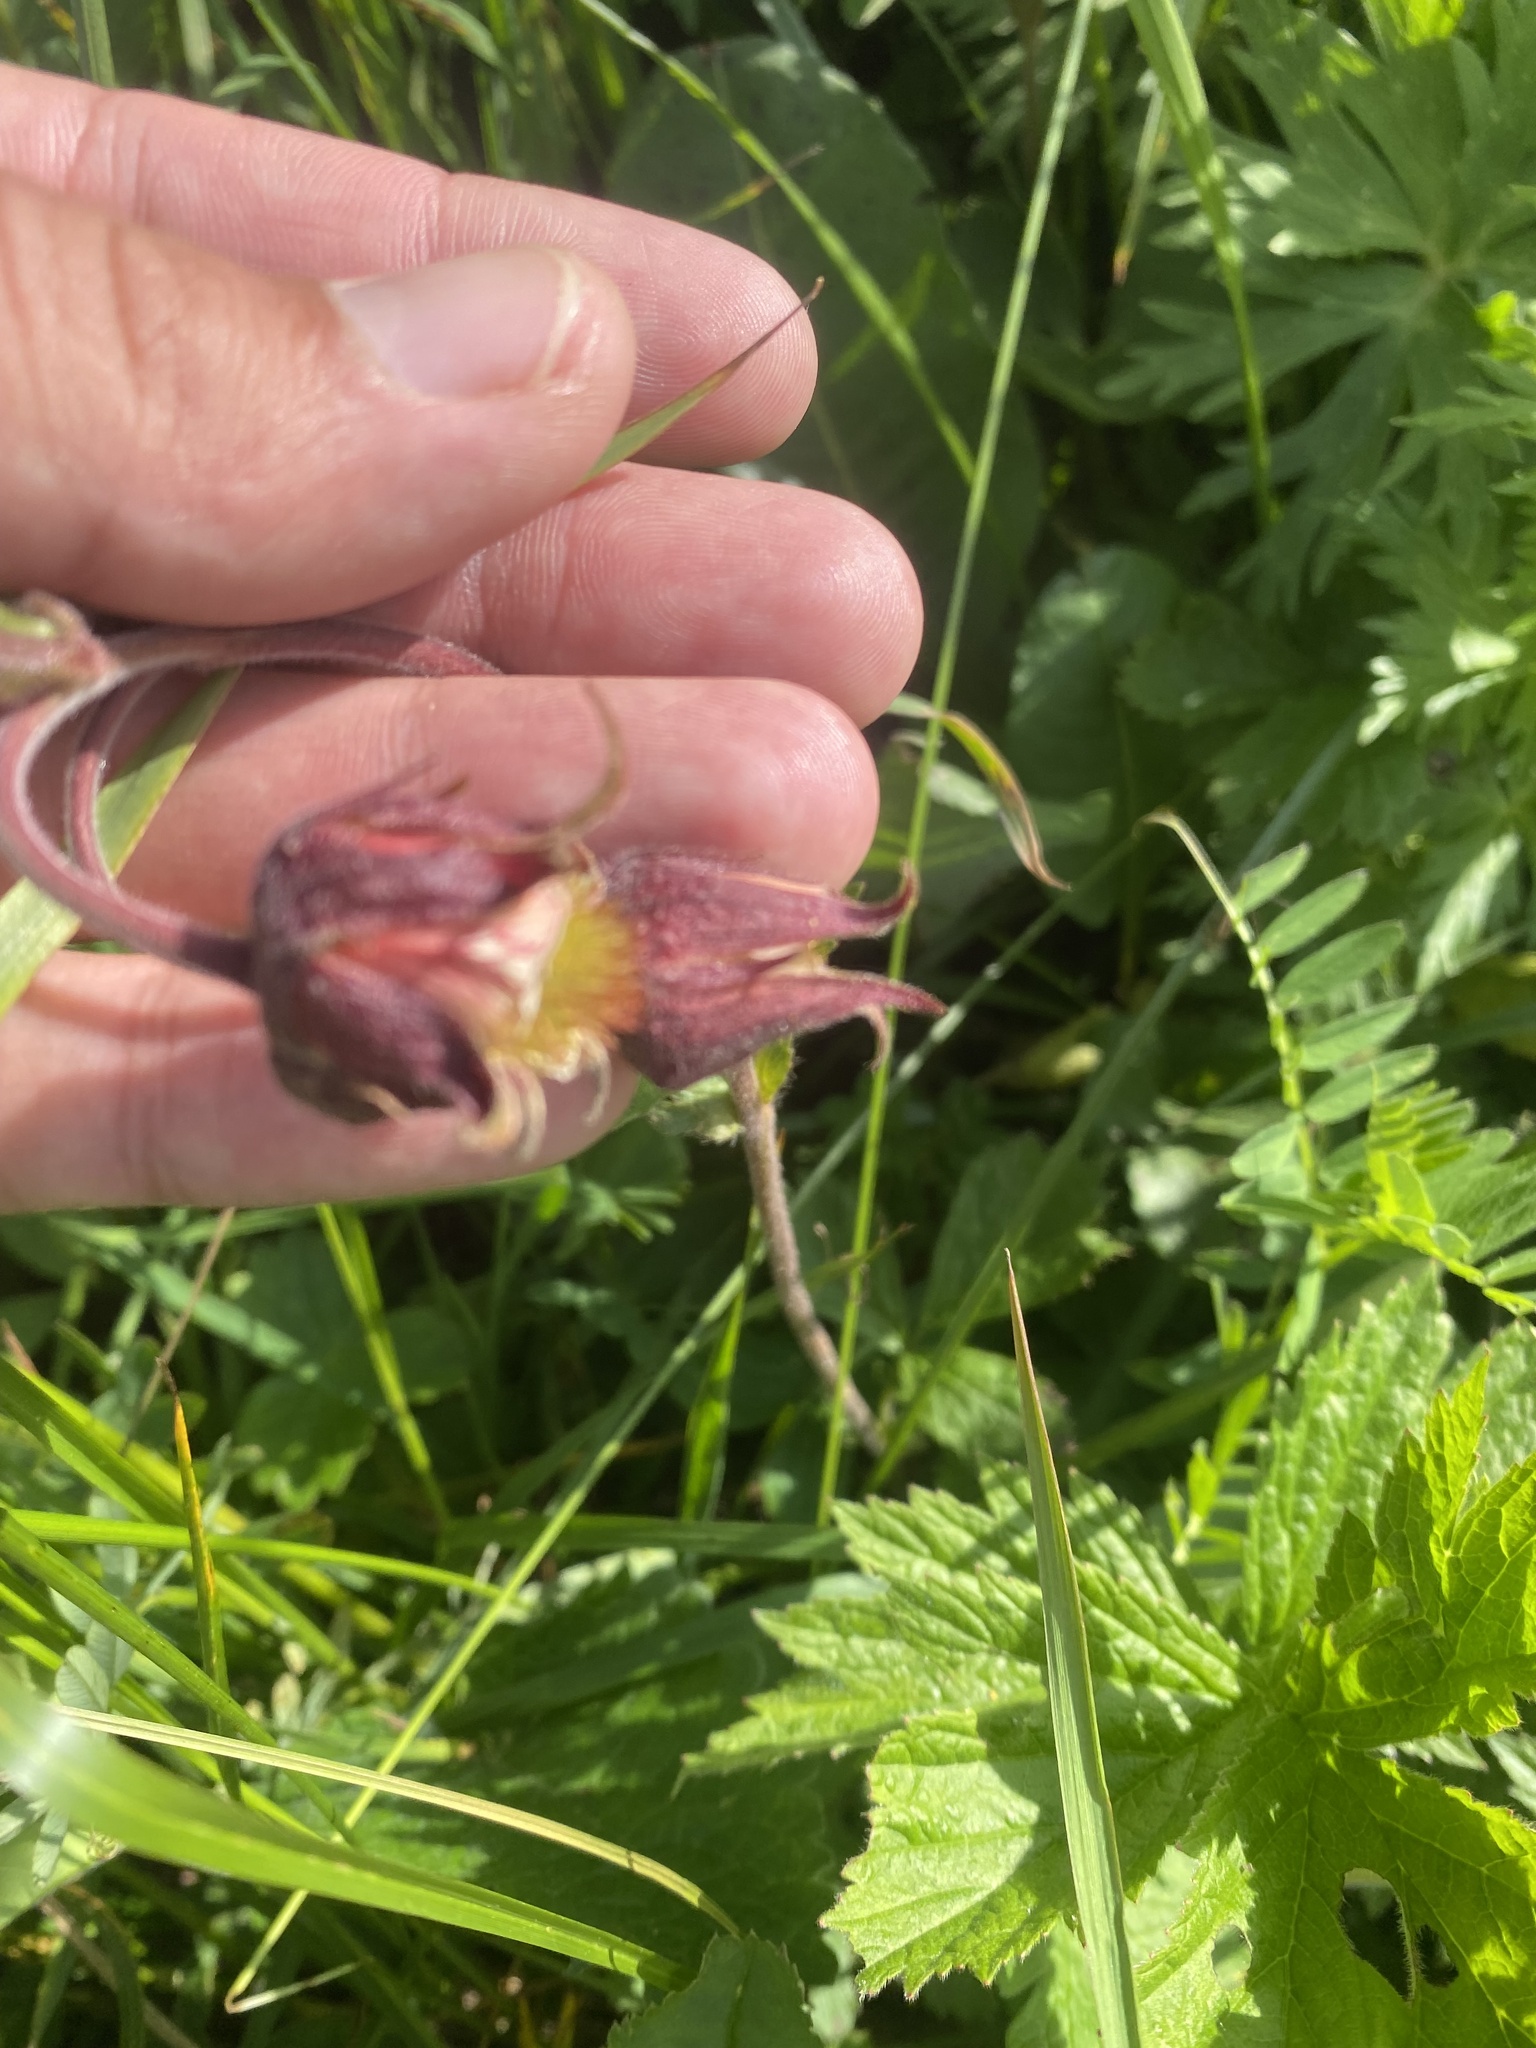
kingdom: Plantae
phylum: Tracheophyta
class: Magnoliopsida
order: Rosales
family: Rosaceae
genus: Geum
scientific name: Geum rivale
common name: Water avens
